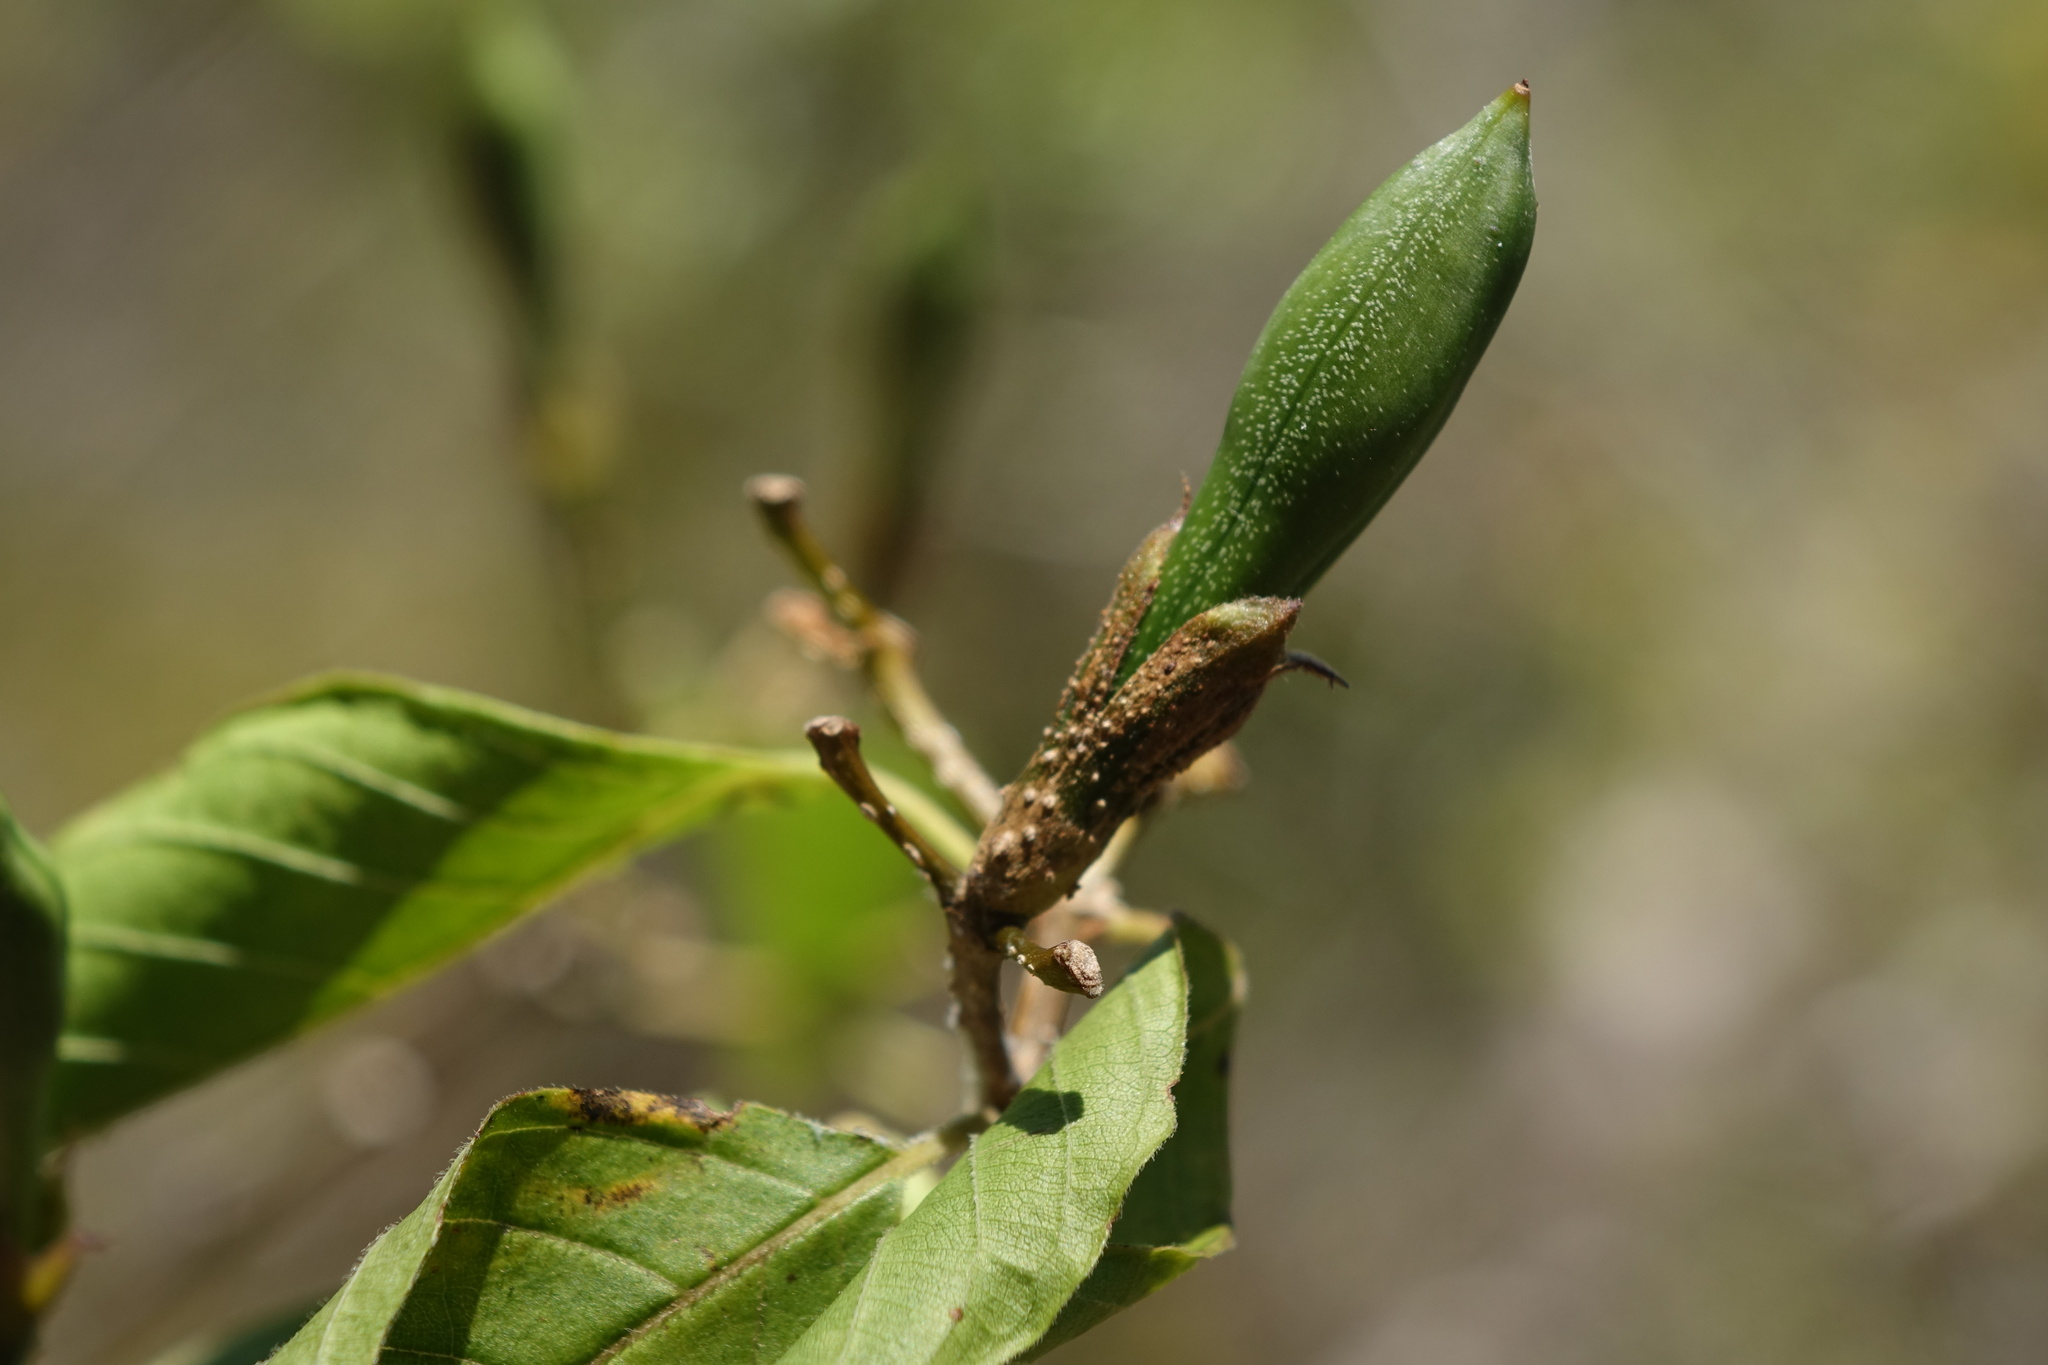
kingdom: Plantae
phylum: Tracheophyta
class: Magnoliopsida
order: Lamiales
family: Acanthaceae
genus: Ruellia
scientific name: Ruellia geayi
